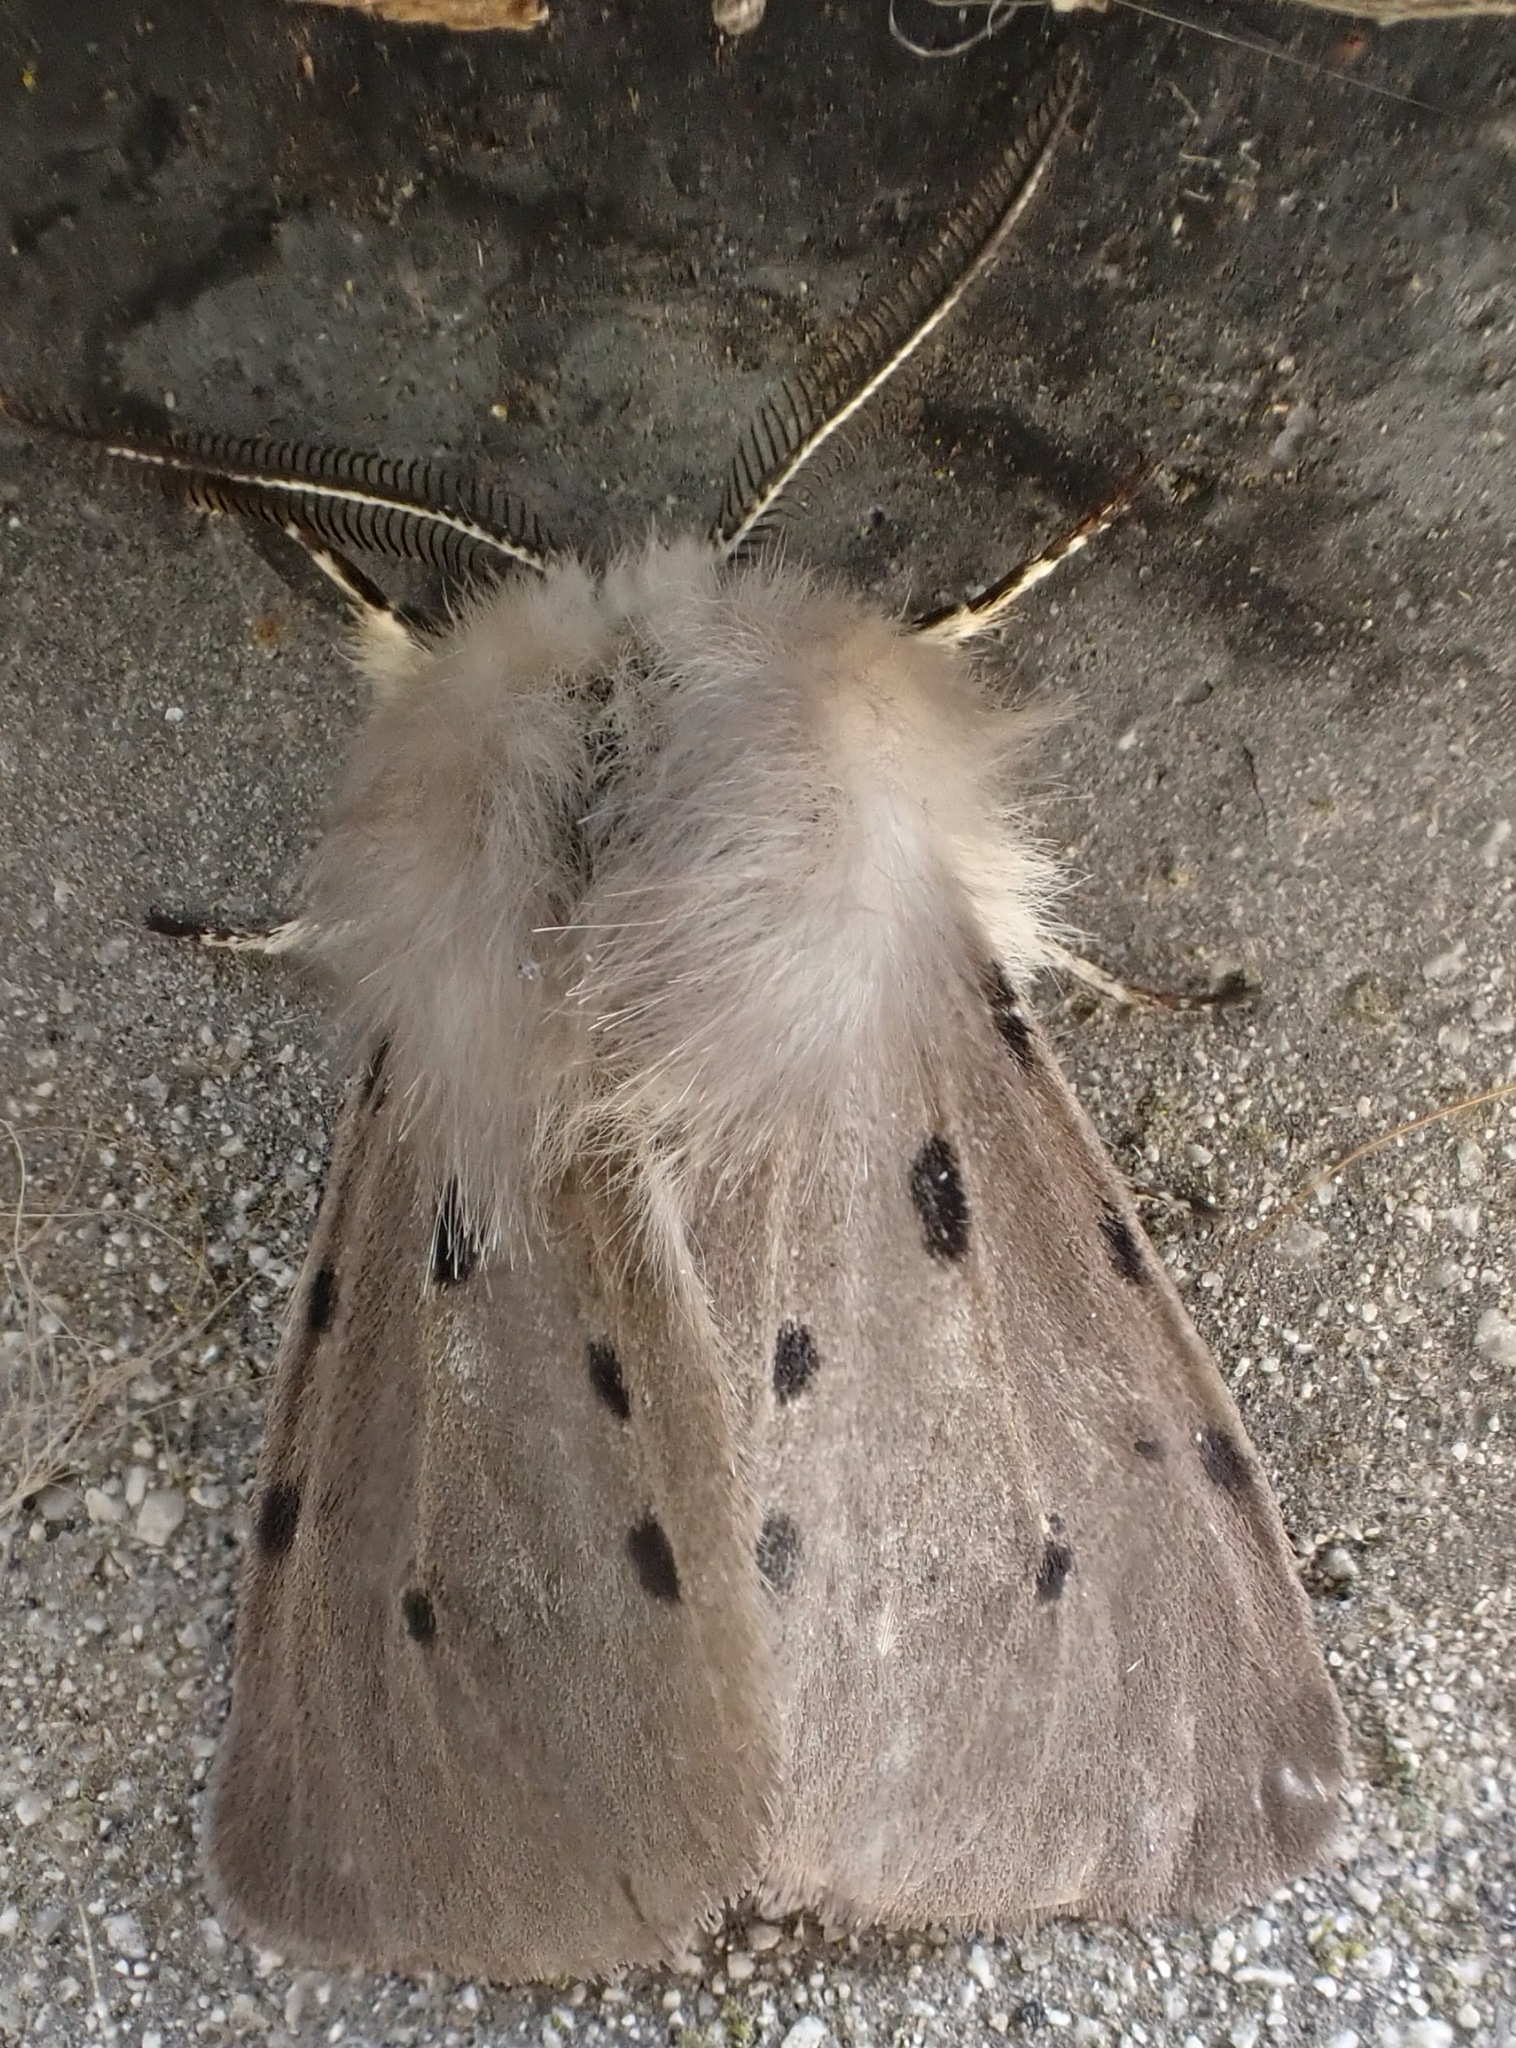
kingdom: Animalia
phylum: Arthropoda
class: Insecta
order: Lepidoptera
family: Erebidae
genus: Diaphora
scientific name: Diaphora mendica
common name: Muslin moth
